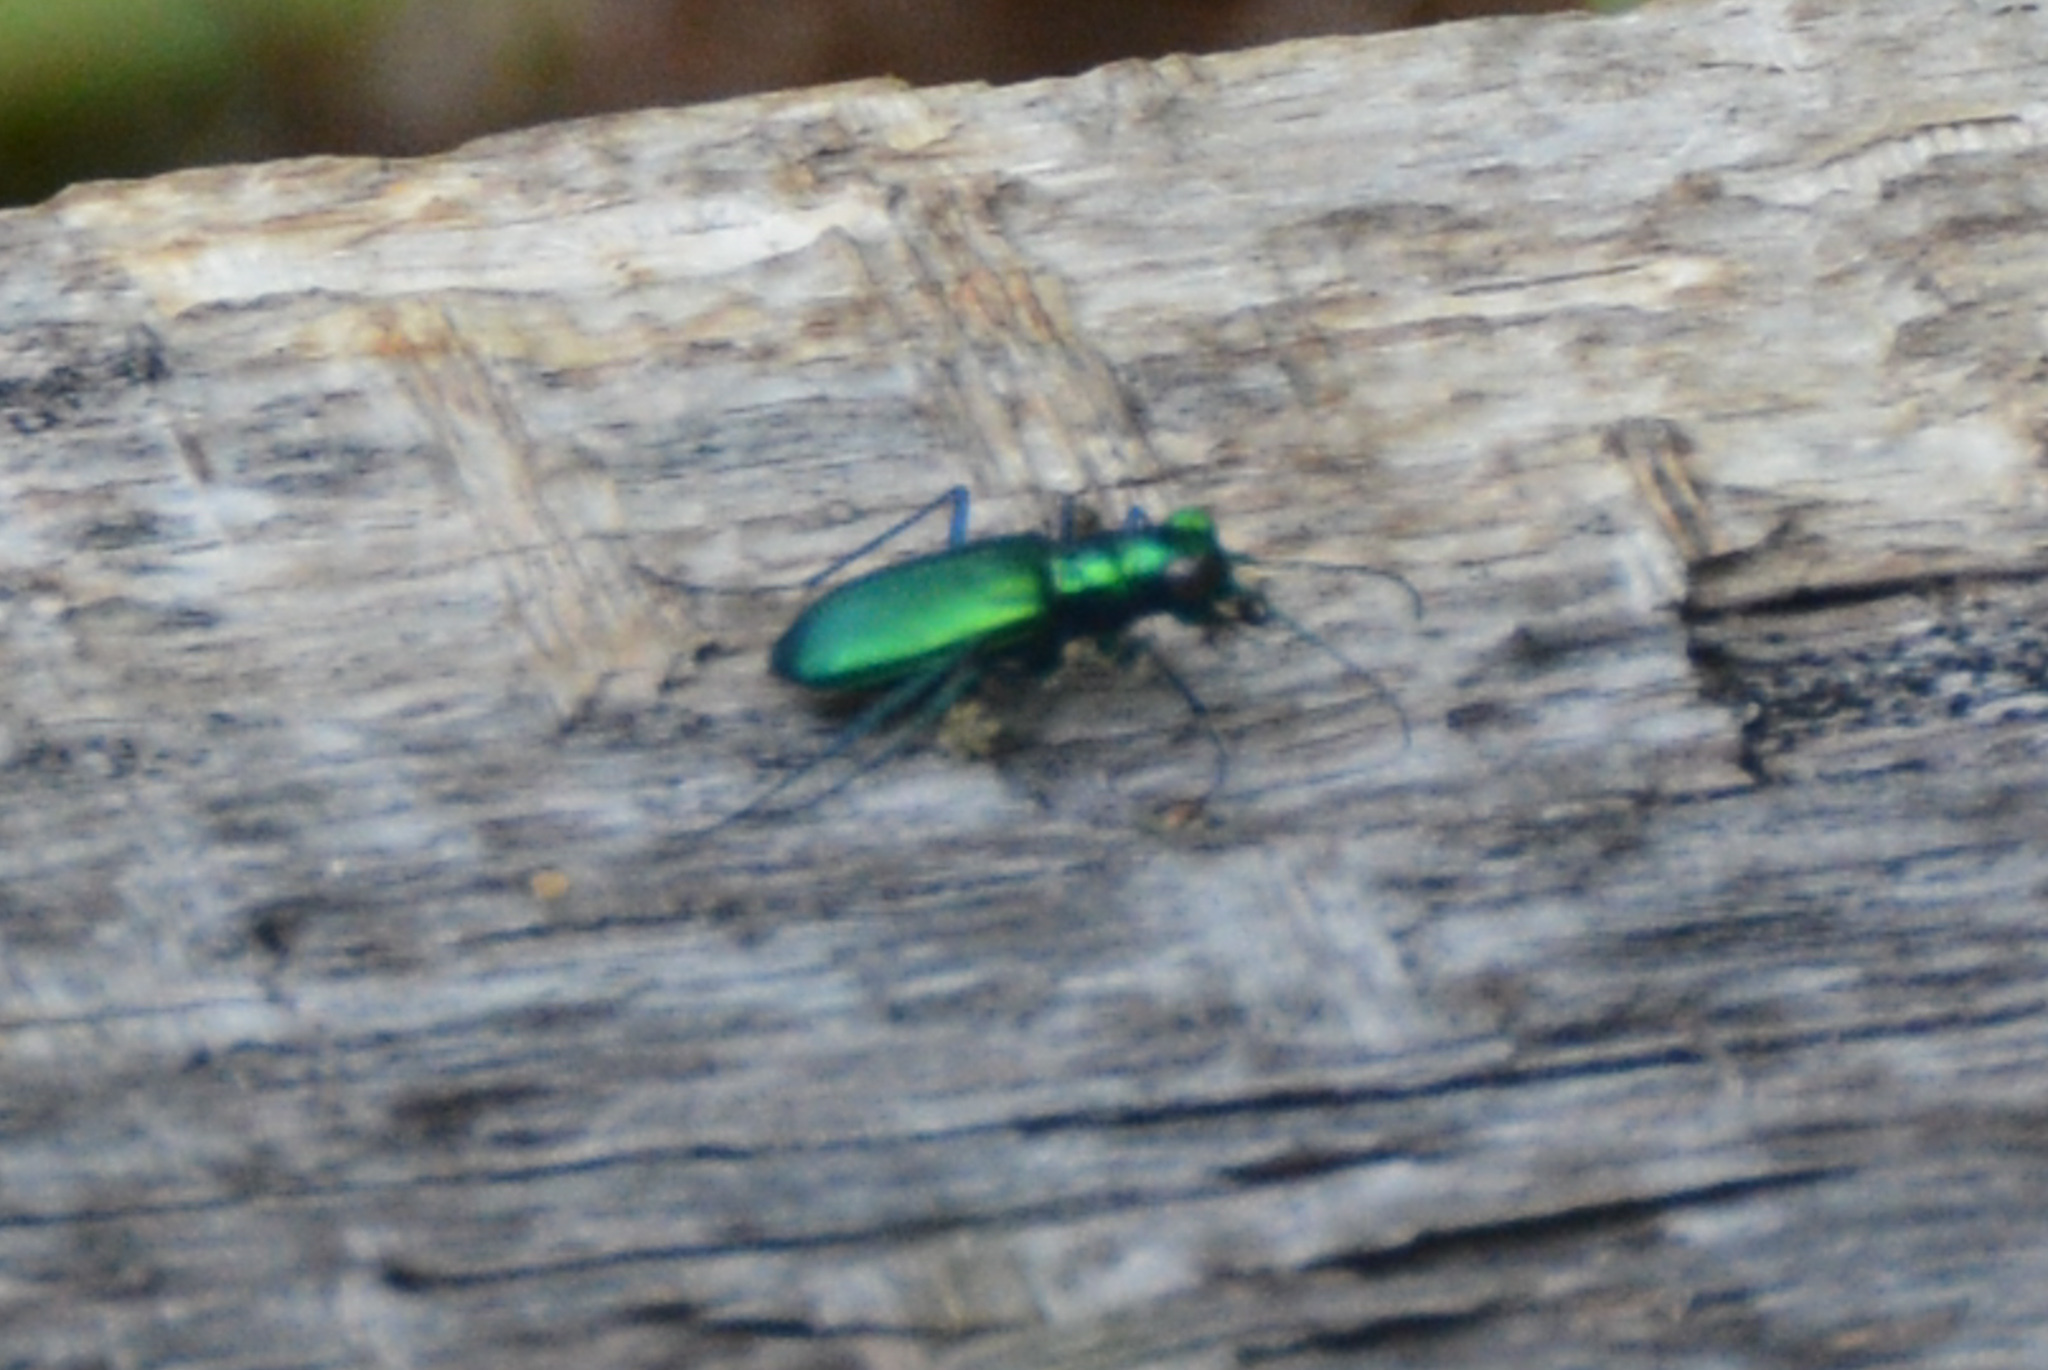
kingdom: Animalia
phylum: Arthropoda
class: Insecta
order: Coleoptera
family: Carabidae
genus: Cicindela
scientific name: Cicindela sexguttata
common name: Six-spotted tiger beetle
